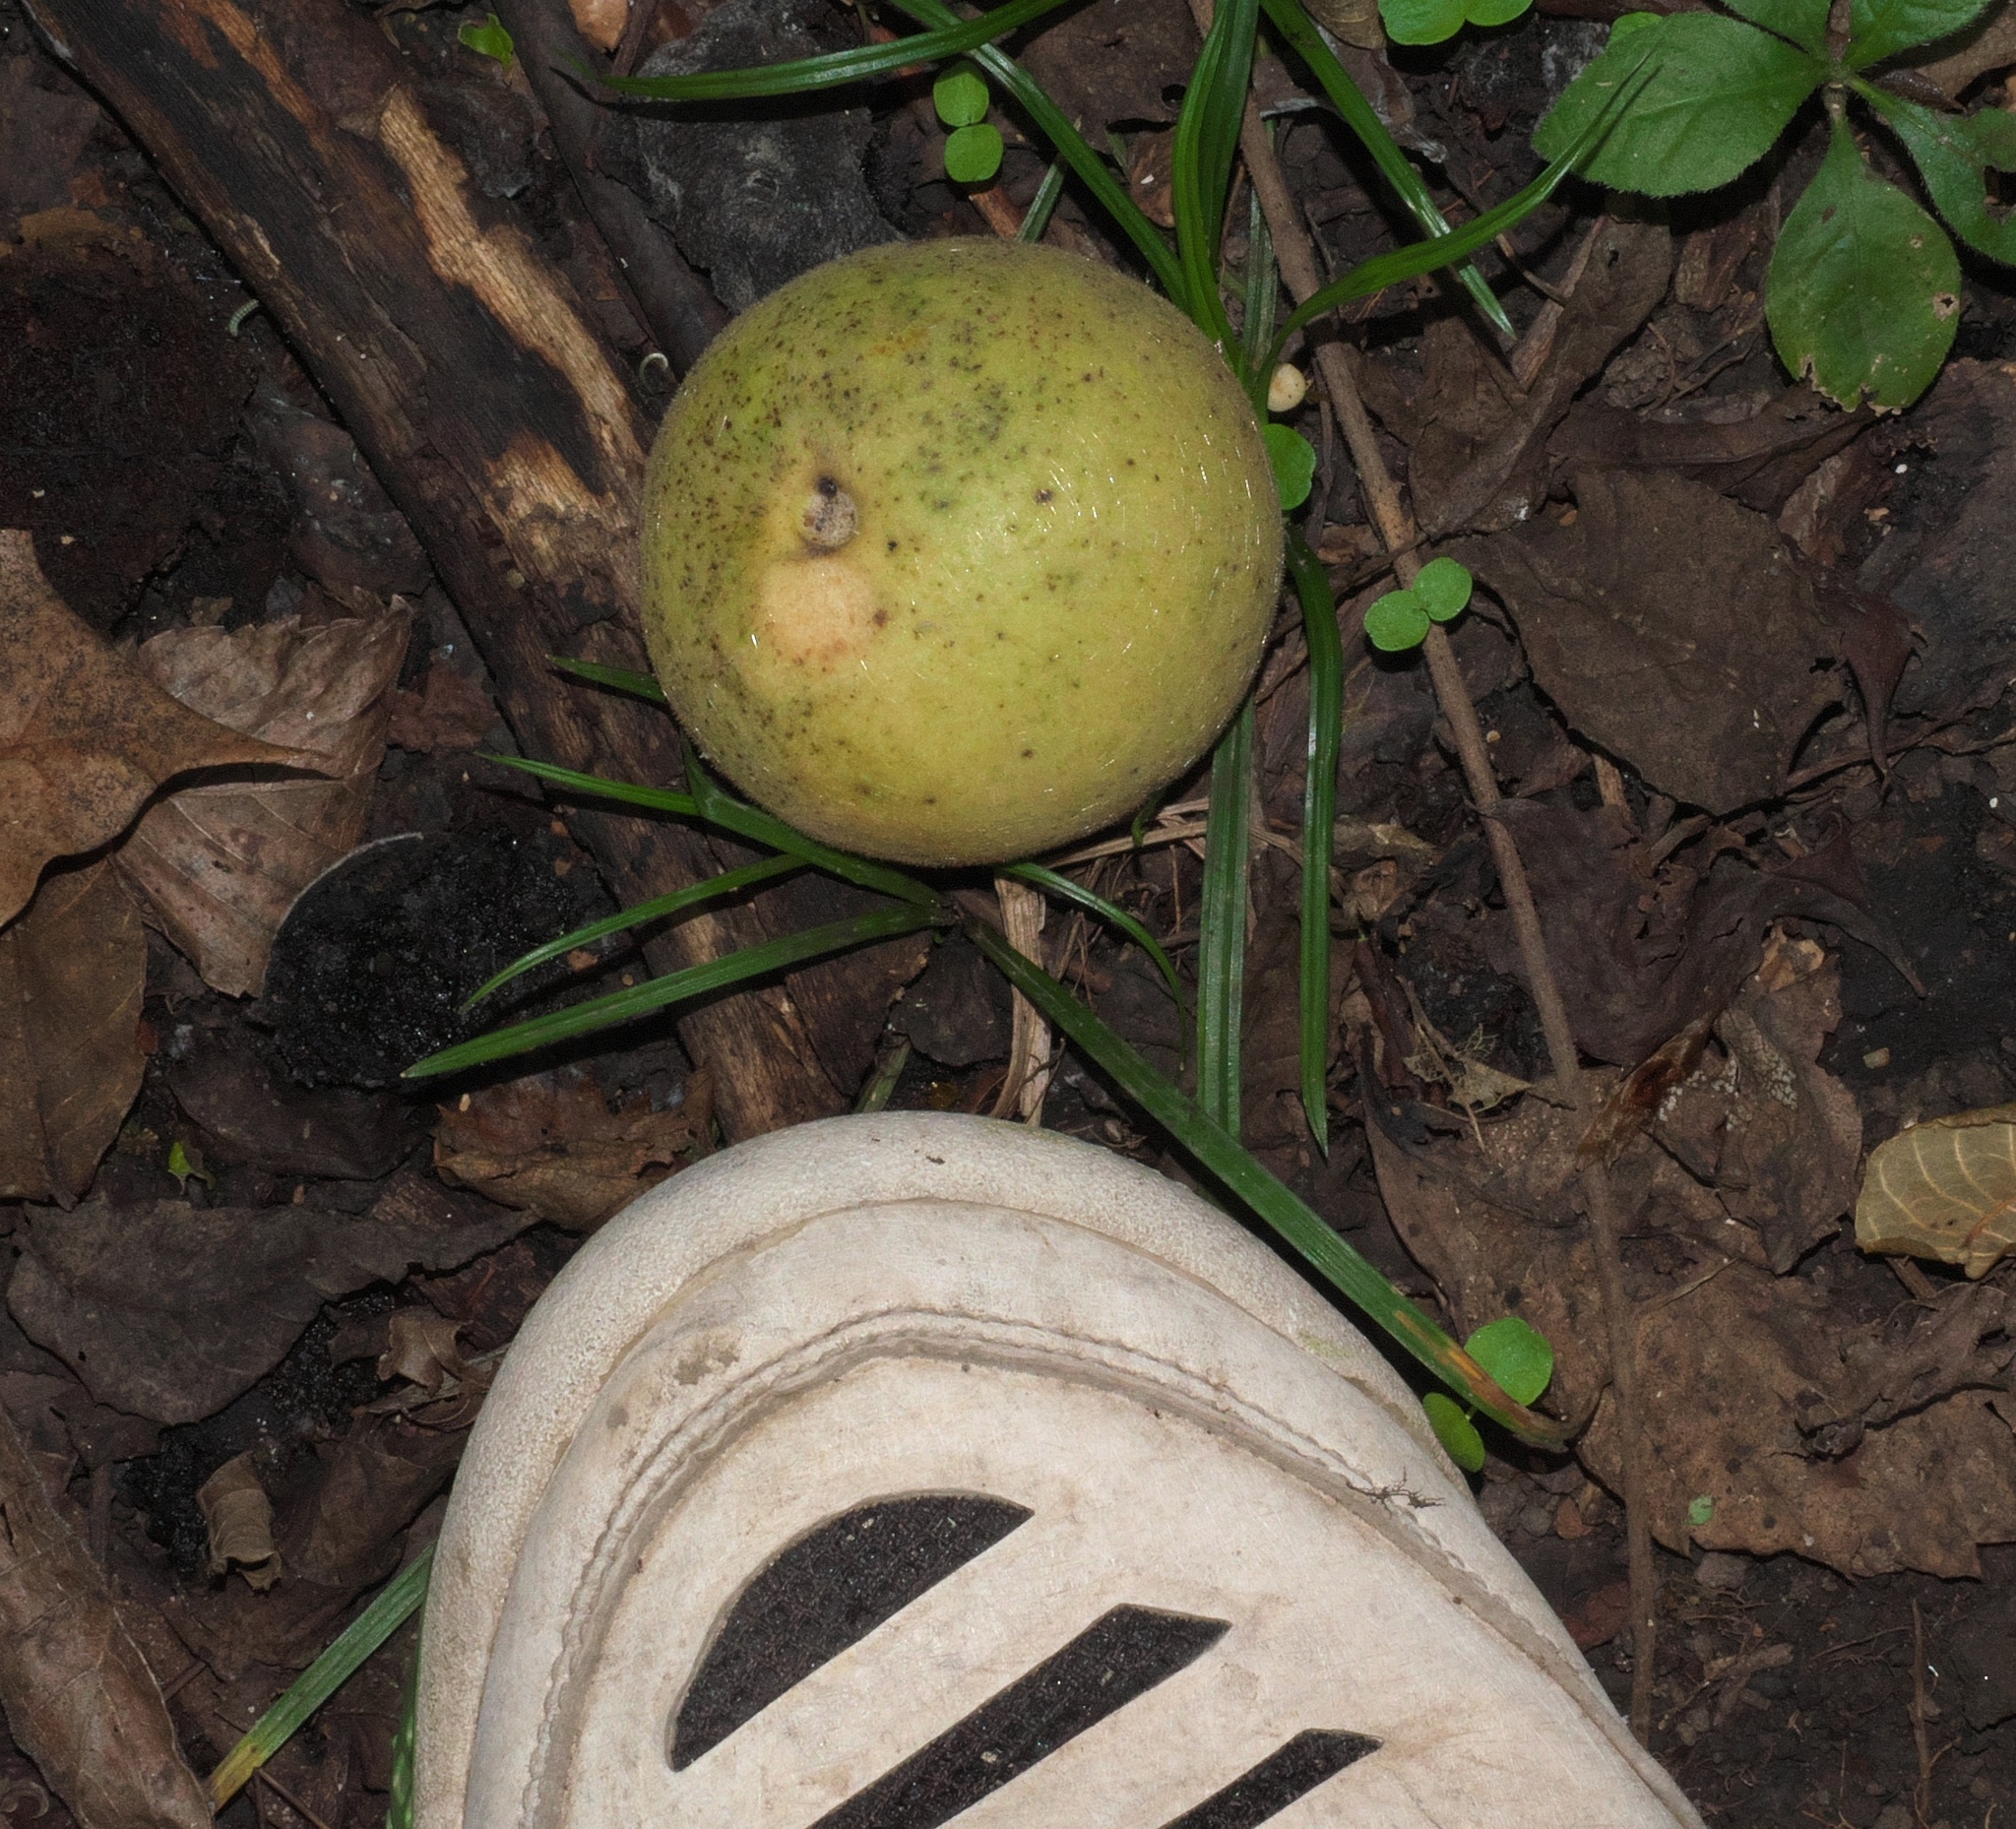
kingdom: Plantae
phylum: Tracheophyta
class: Magnoliopsida
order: Fagales
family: Juglandaceae
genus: Juglans
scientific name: Juglans nigra
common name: Black walnut
